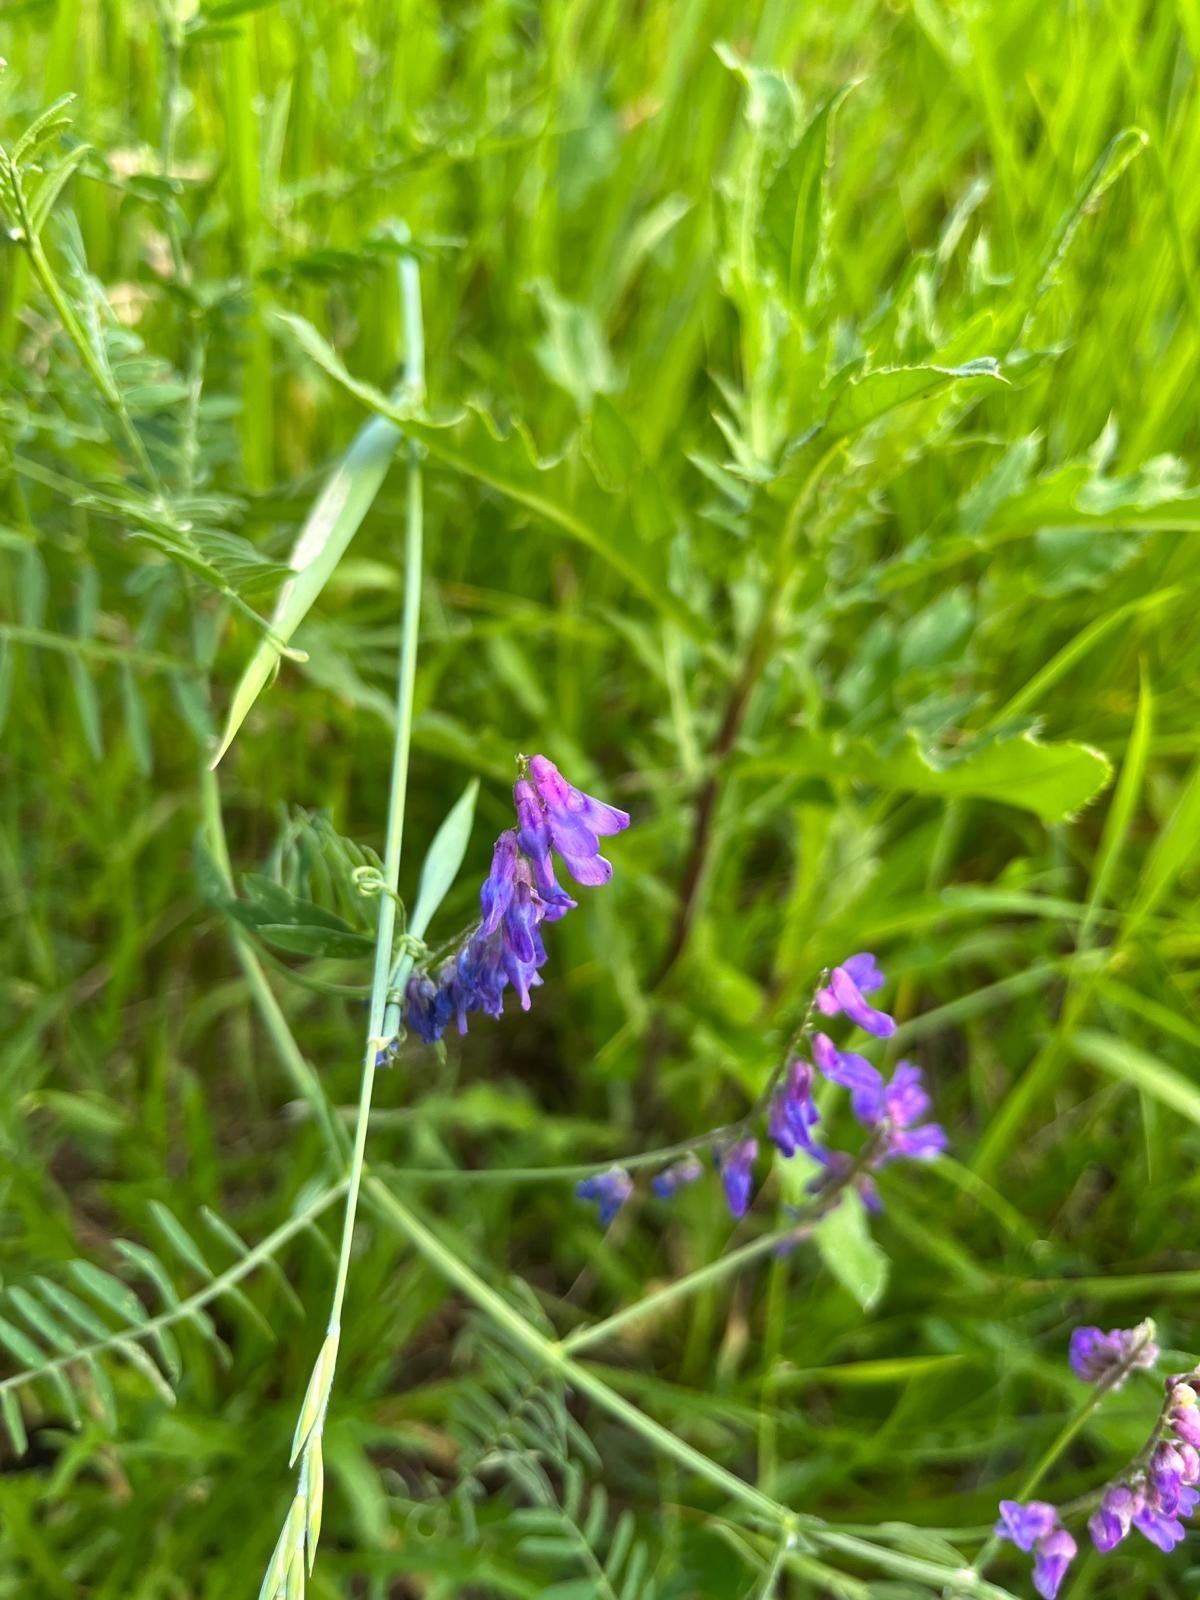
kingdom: Plantae
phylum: Tracheophyta
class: Magnoliopsida
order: Fabales
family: Fabaceae
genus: Vicia
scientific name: Vicia cracca
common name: Bird vetch
